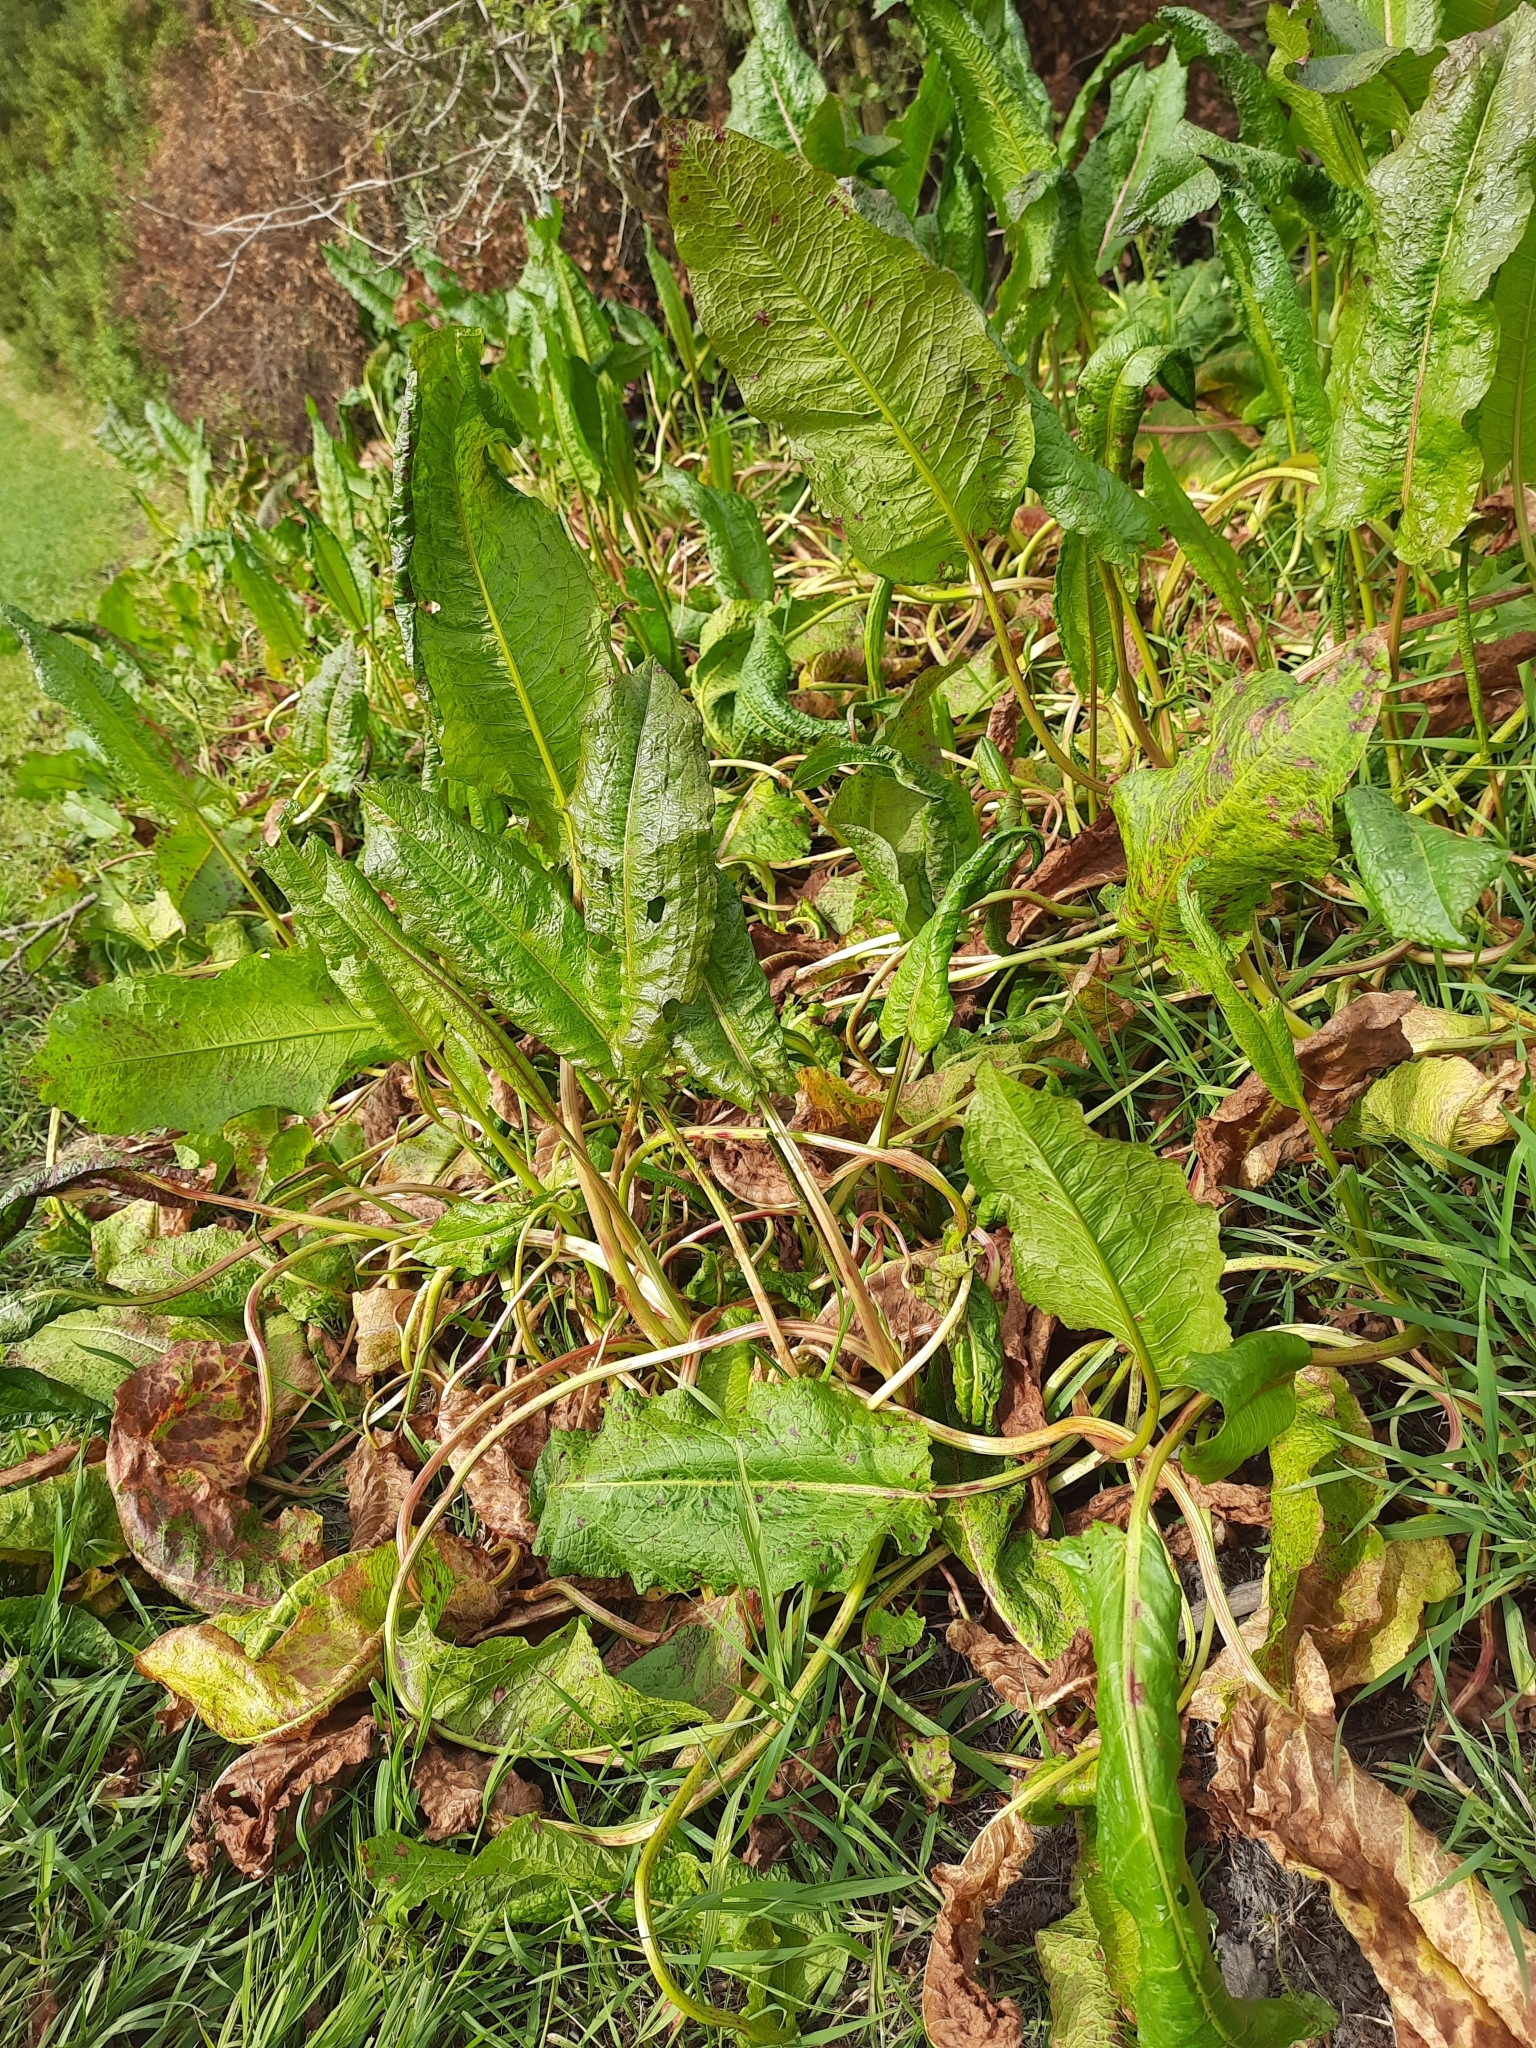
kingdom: Plantae
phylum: Tracheophyta
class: Magnoliopsida
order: Caryophyllales
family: Polygonaceae
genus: Rumex
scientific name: Rumex obtusifolius
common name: Bitter dock
